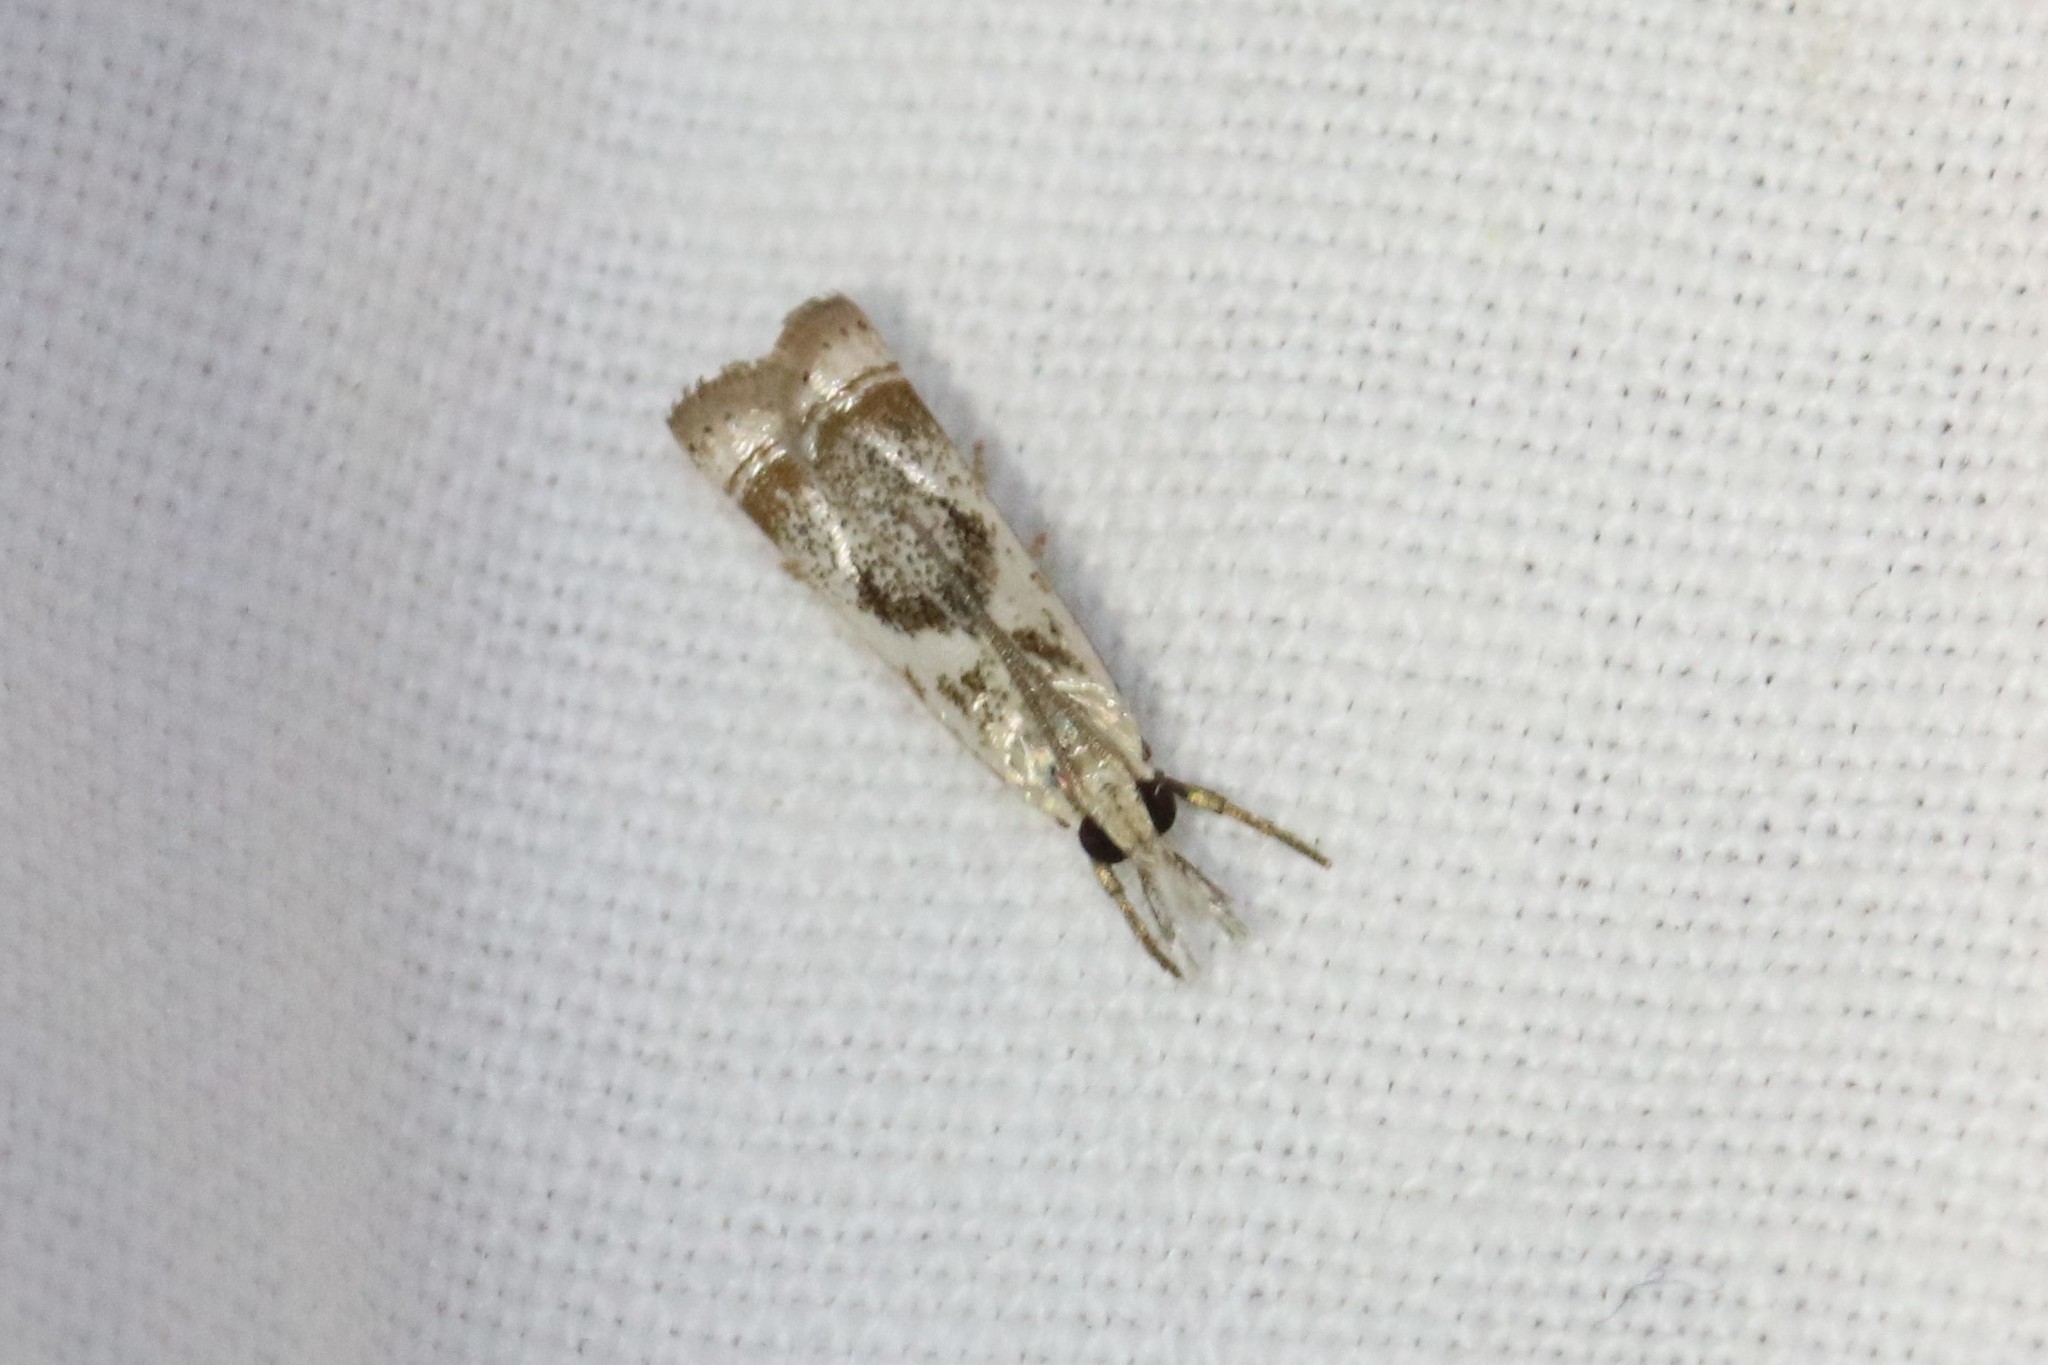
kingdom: Animalia
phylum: Arthropoda
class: Insecta
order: Lepidoptera
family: Crambidae
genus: Microcrambus
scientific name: Microcrambus elegans
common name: Elegant grass-veneer
